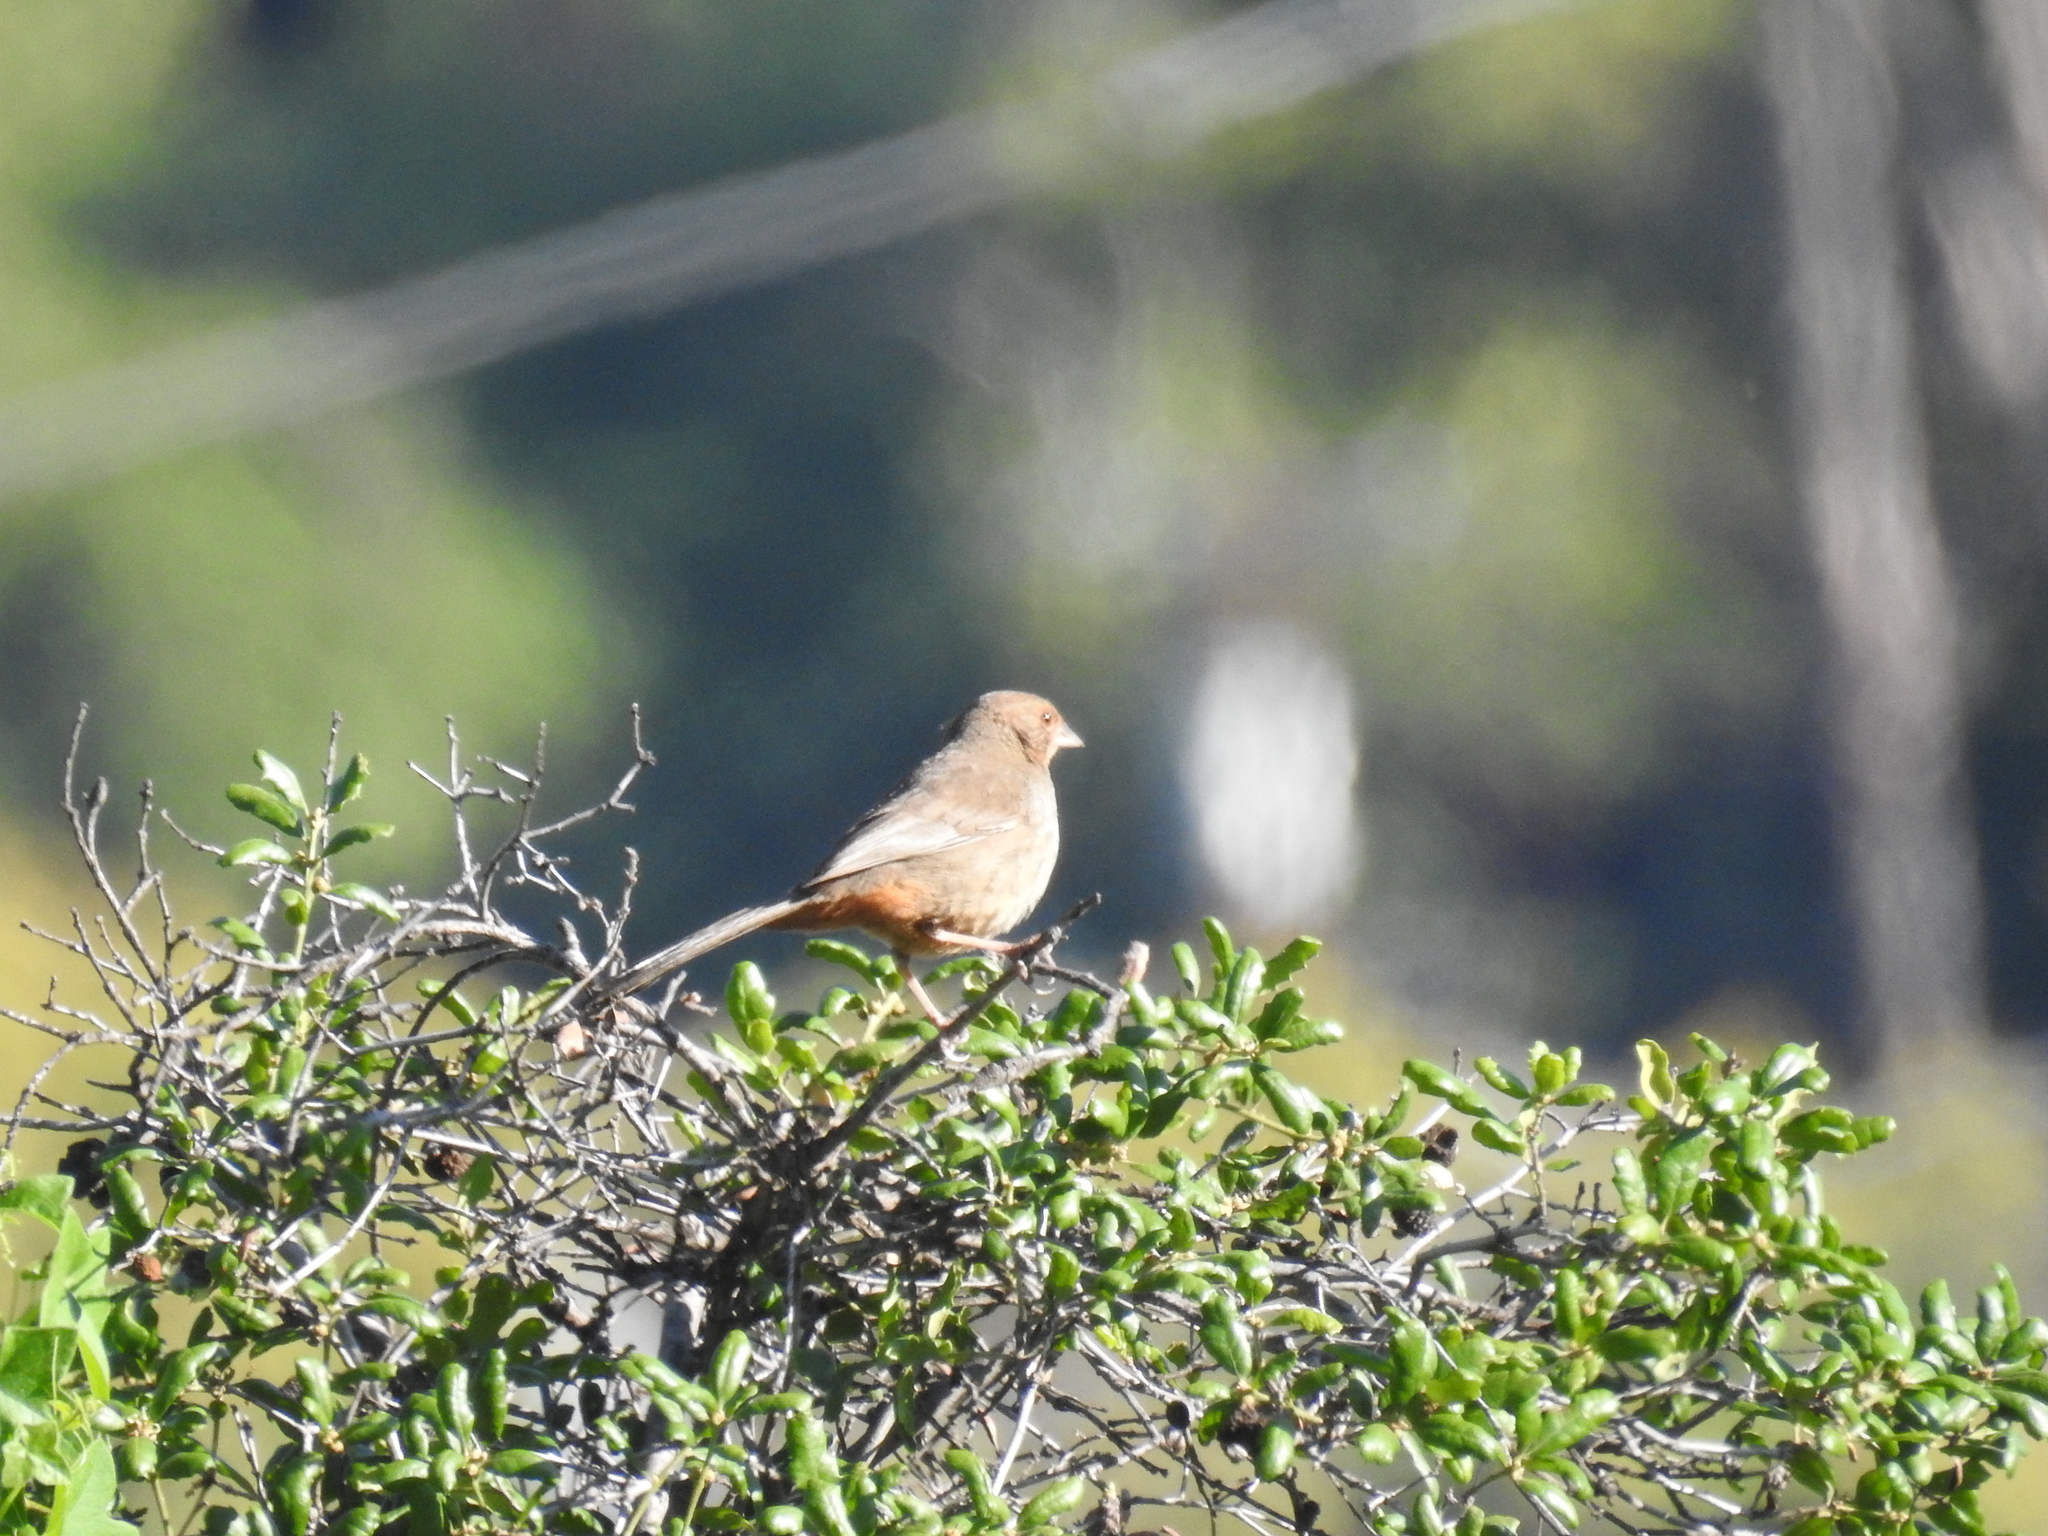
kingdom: Animalia
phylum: Chordata
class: Aves
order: Passeriformes
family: Passerellidae
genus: Melozone
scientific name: Melozone crissalis
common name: California towhee
